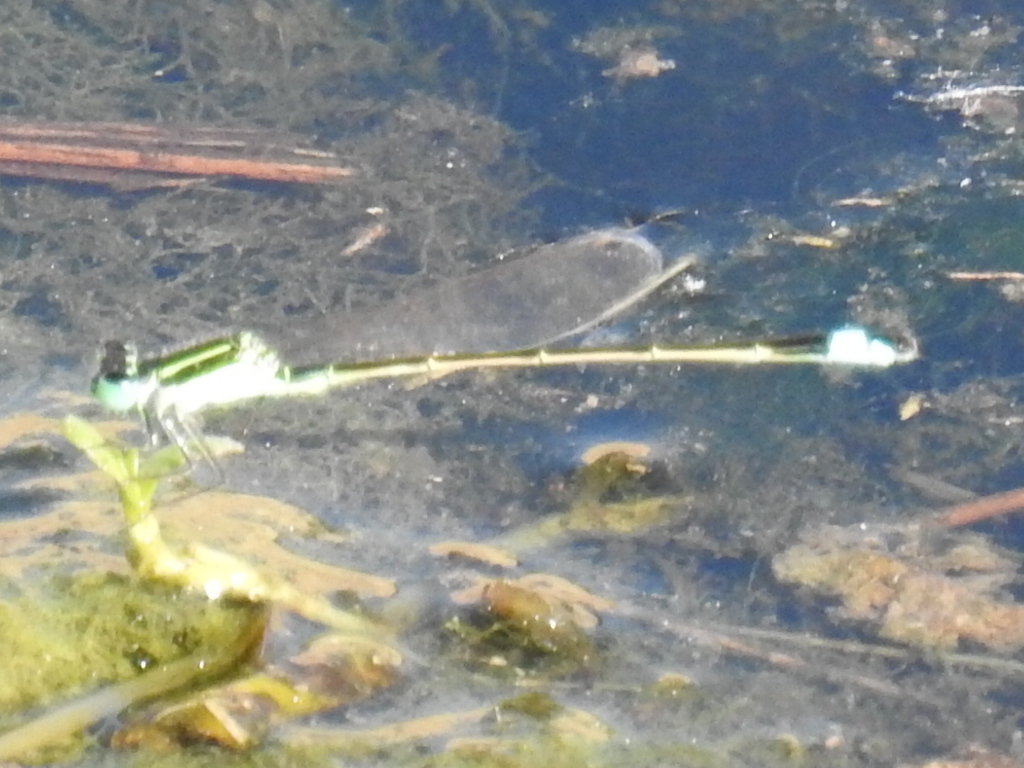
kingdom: Animalia
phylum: Arthropoda
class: Insecta
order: Odonata
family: Coenagrionidae
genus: Ischnura
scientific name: Ischnura ramburii
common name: Rambur's forktail
